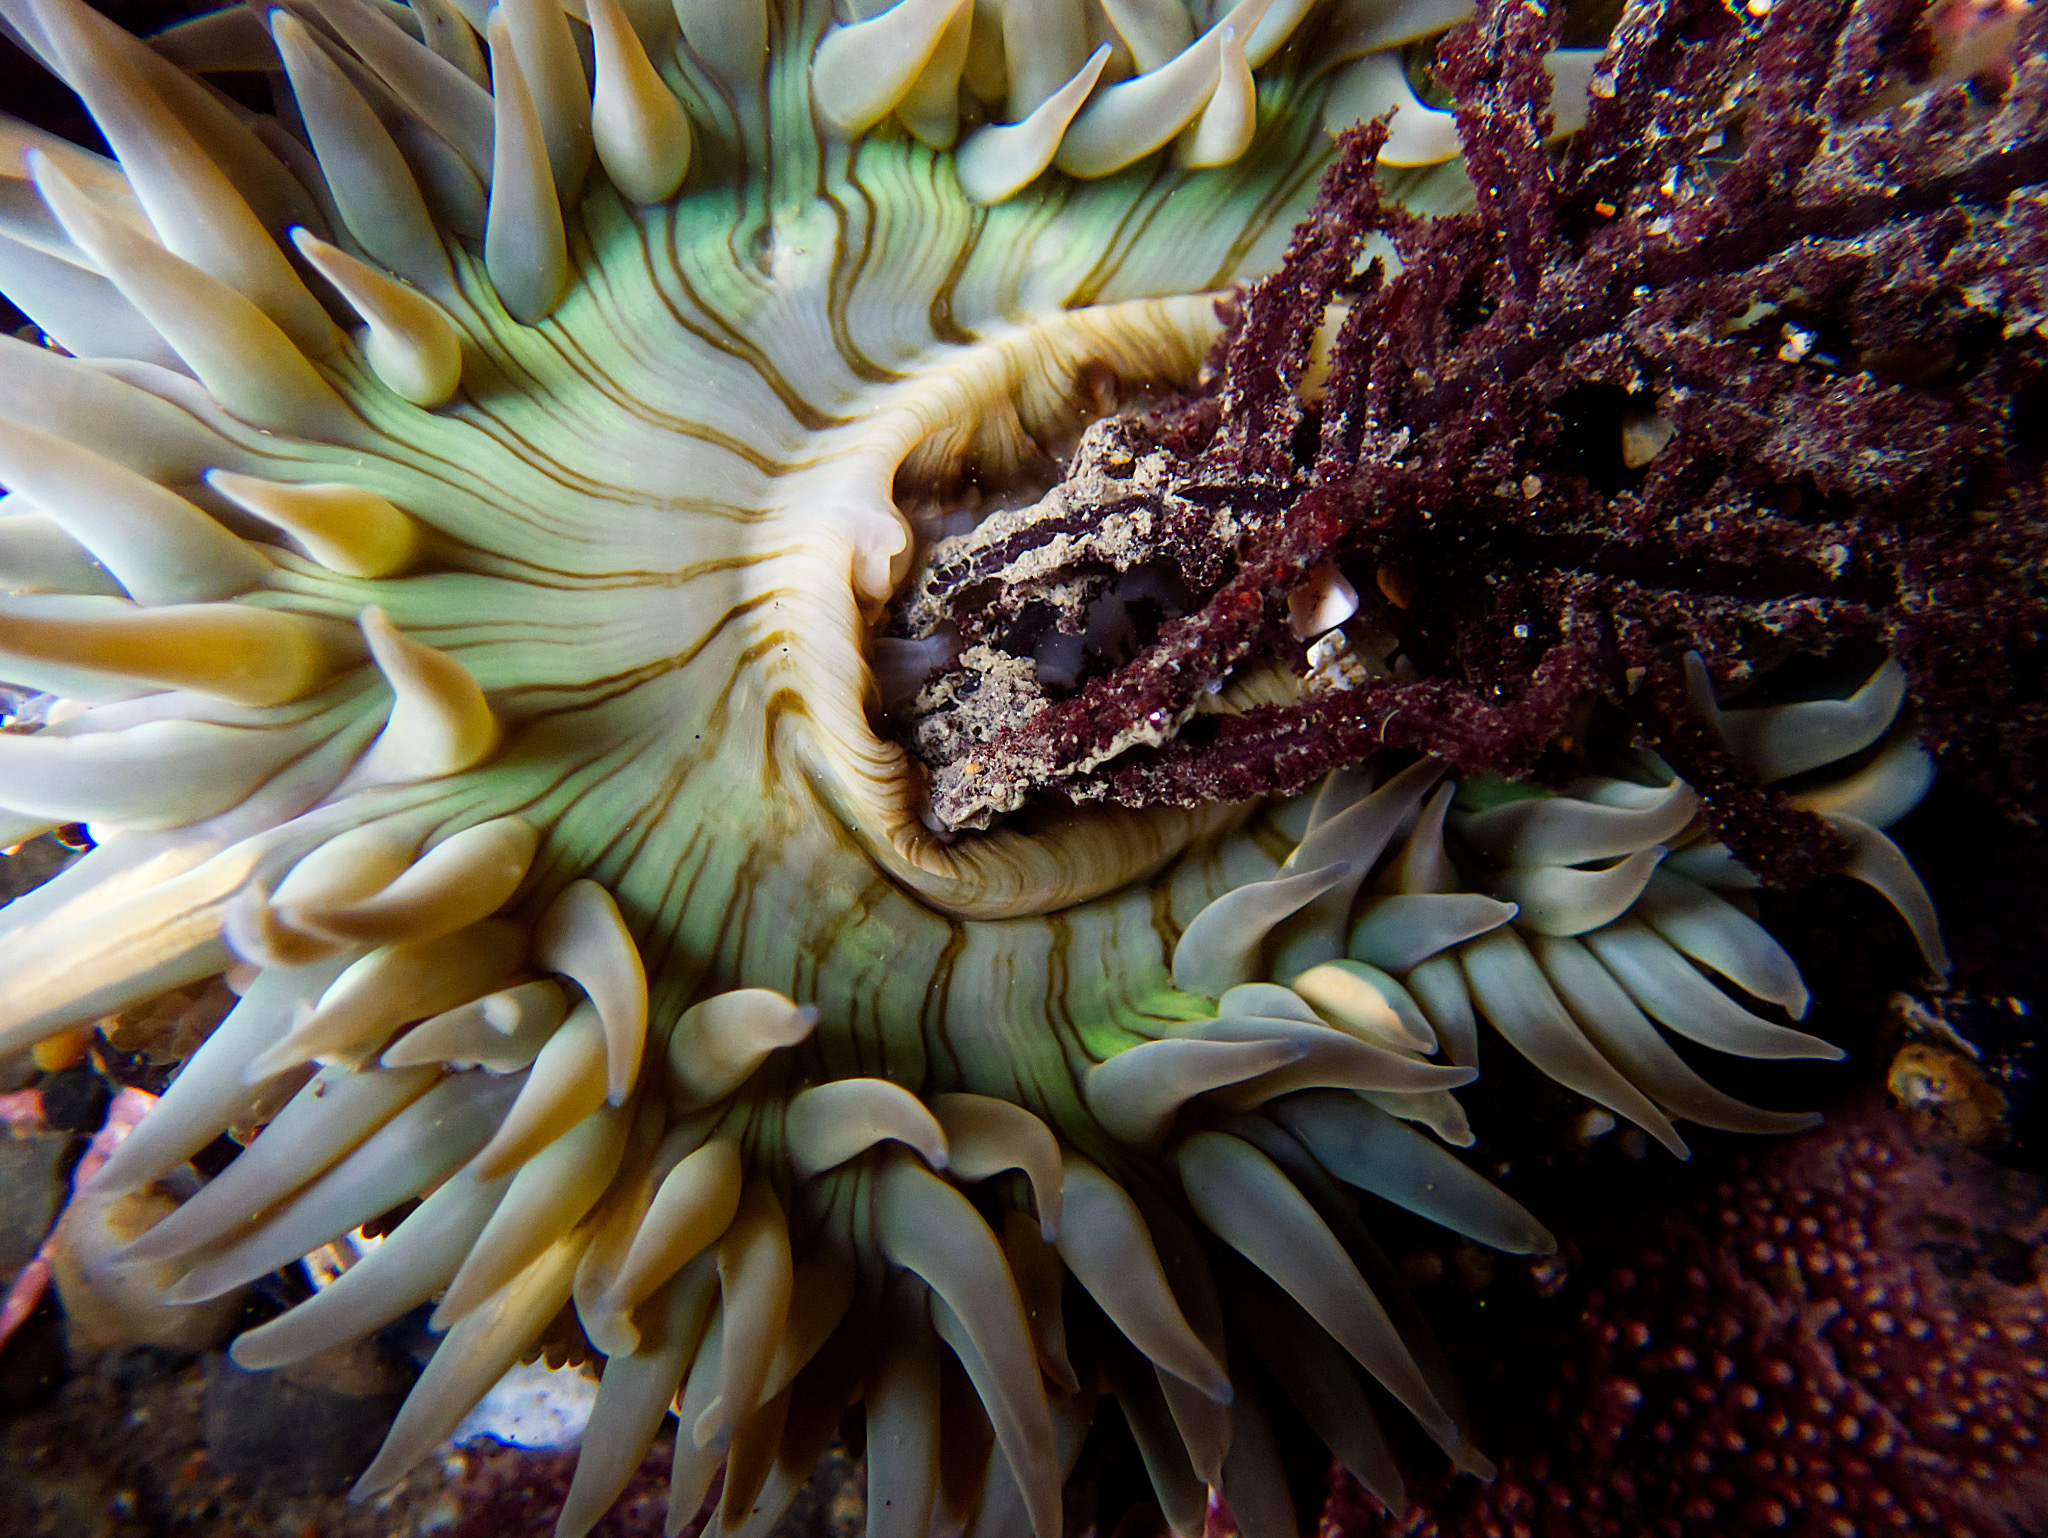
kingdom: Animalia
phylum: Cnidaria
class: Anthozoa
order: Actiniaria
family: Actiniidae
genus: Anthopleura
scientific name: Anthopleura sola
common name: Sun anemone
